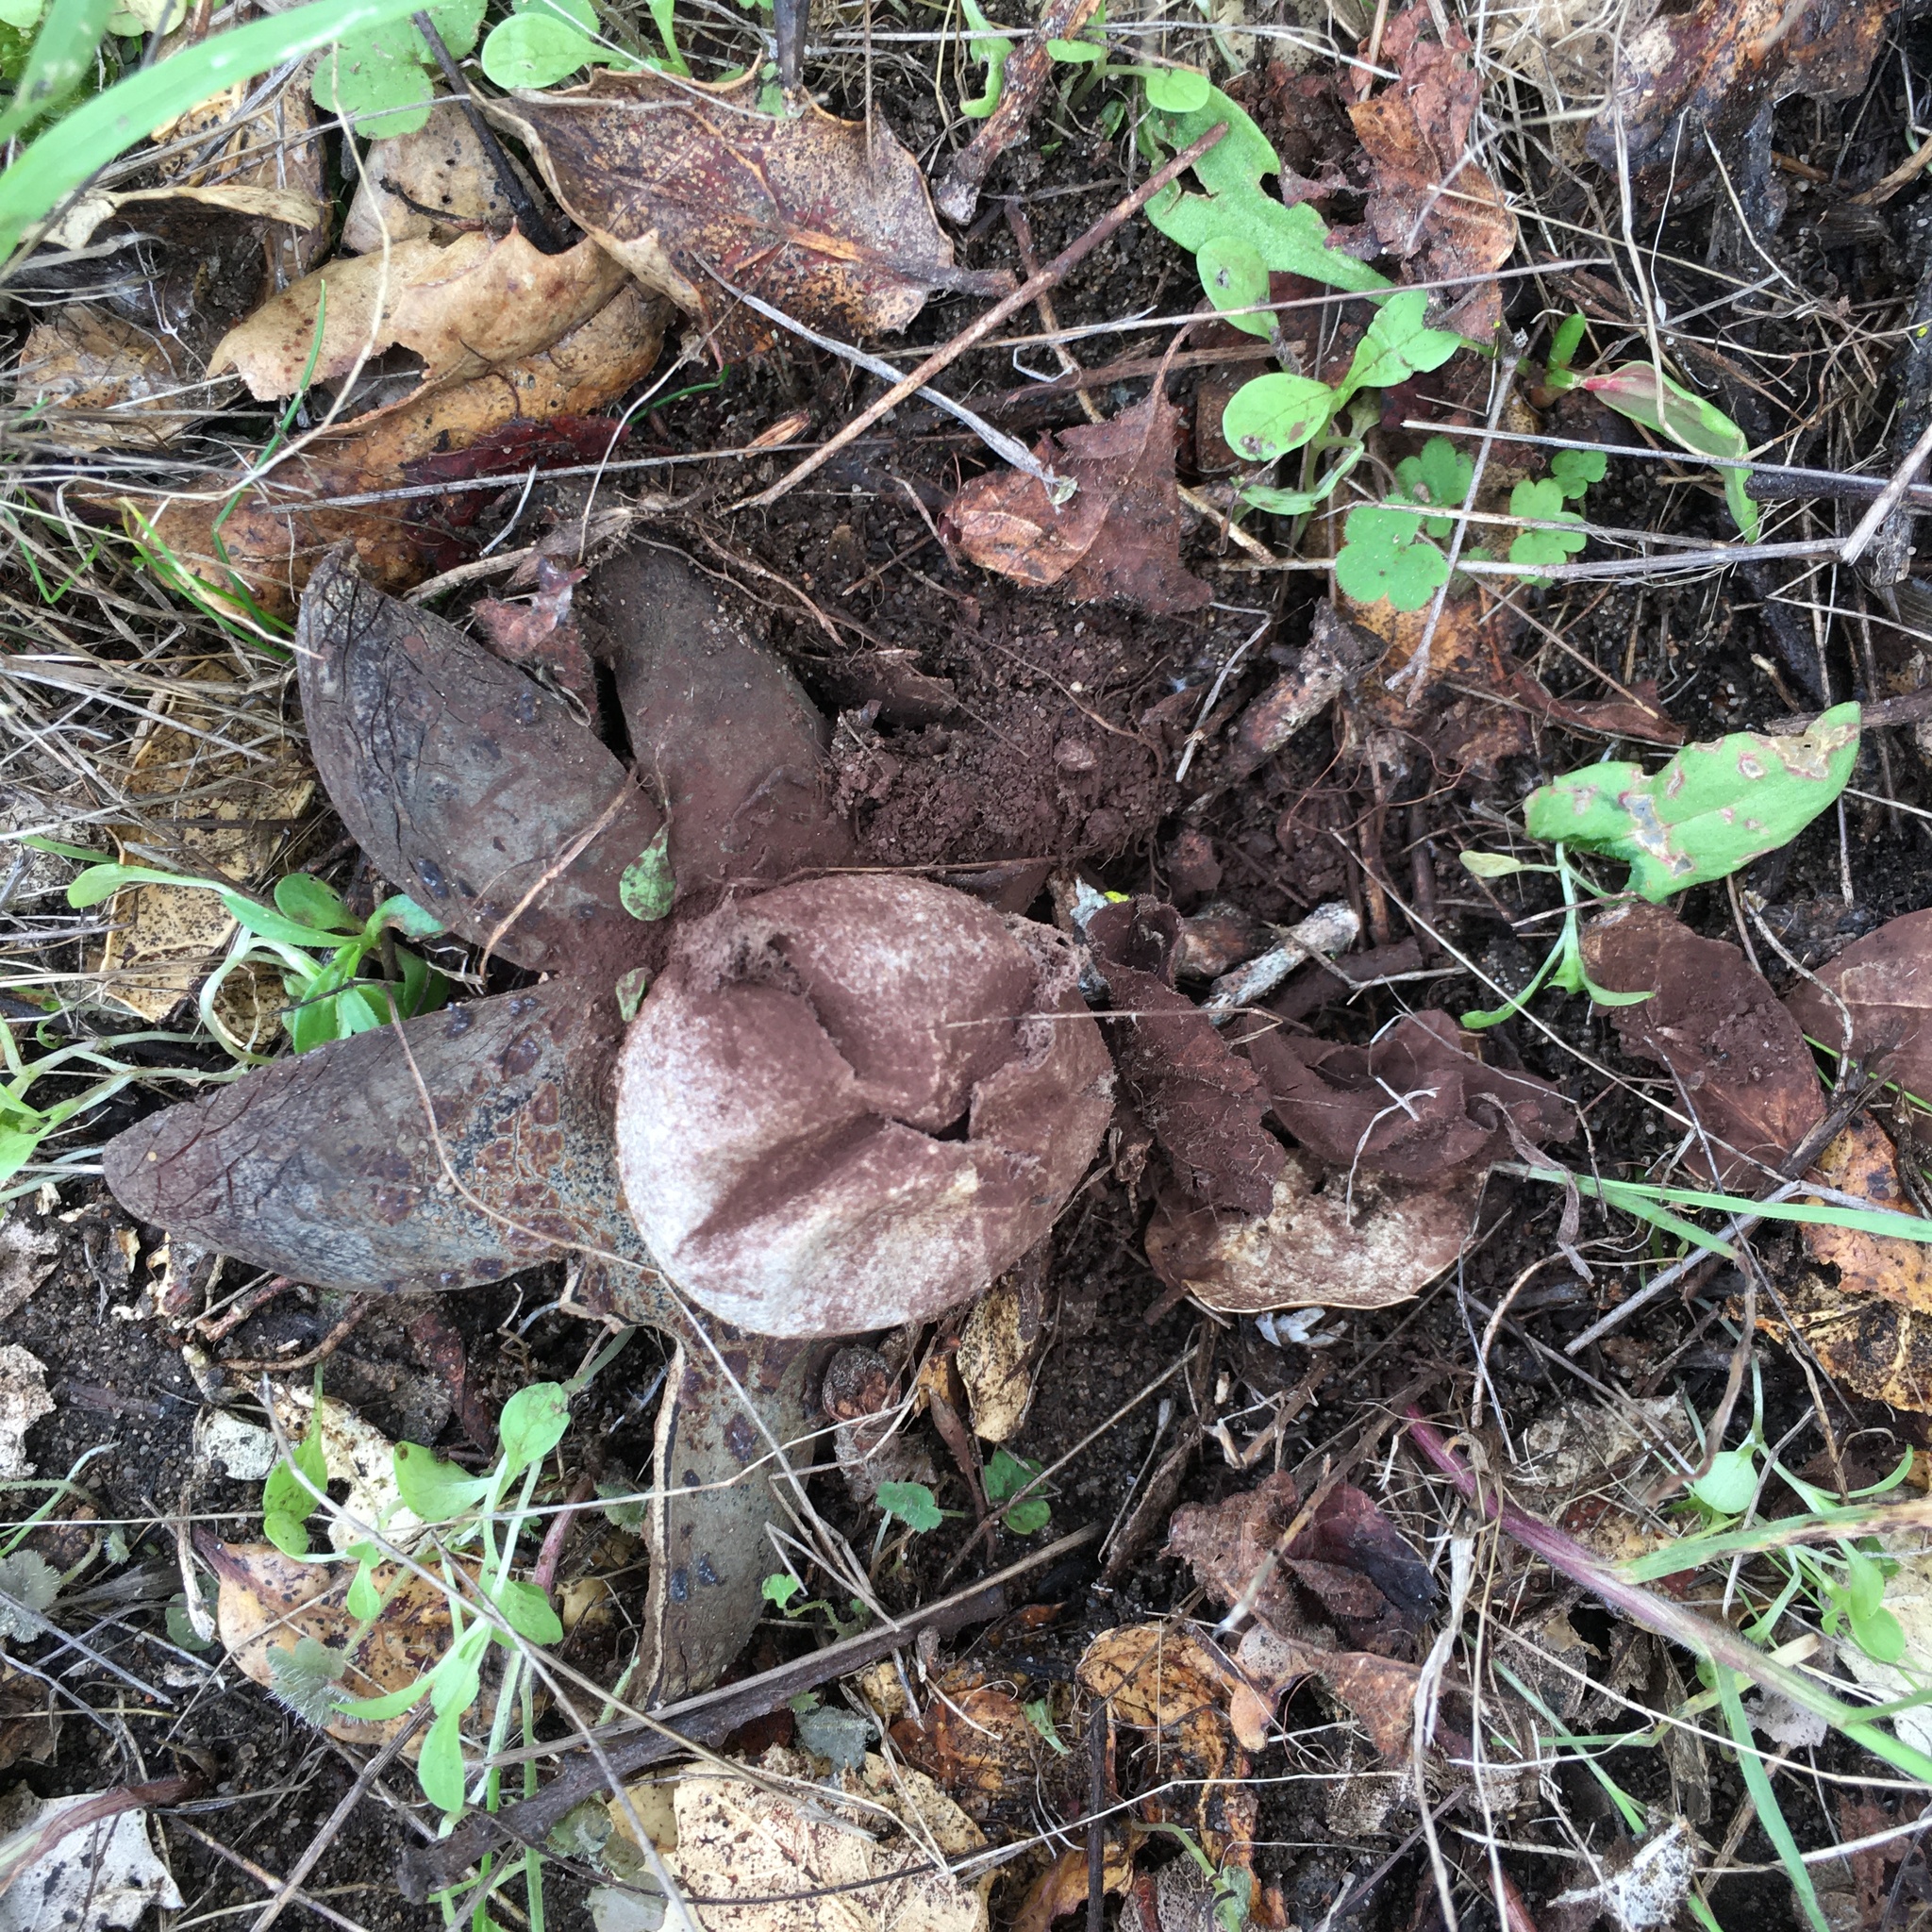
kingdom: Fungi
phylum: Basidiomycota
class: Agaricomycetes
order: Boletales
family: Diplocystidiaceae
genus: Astraeus
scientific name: Astraeus hygrometricus
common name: Barometer earthstar
